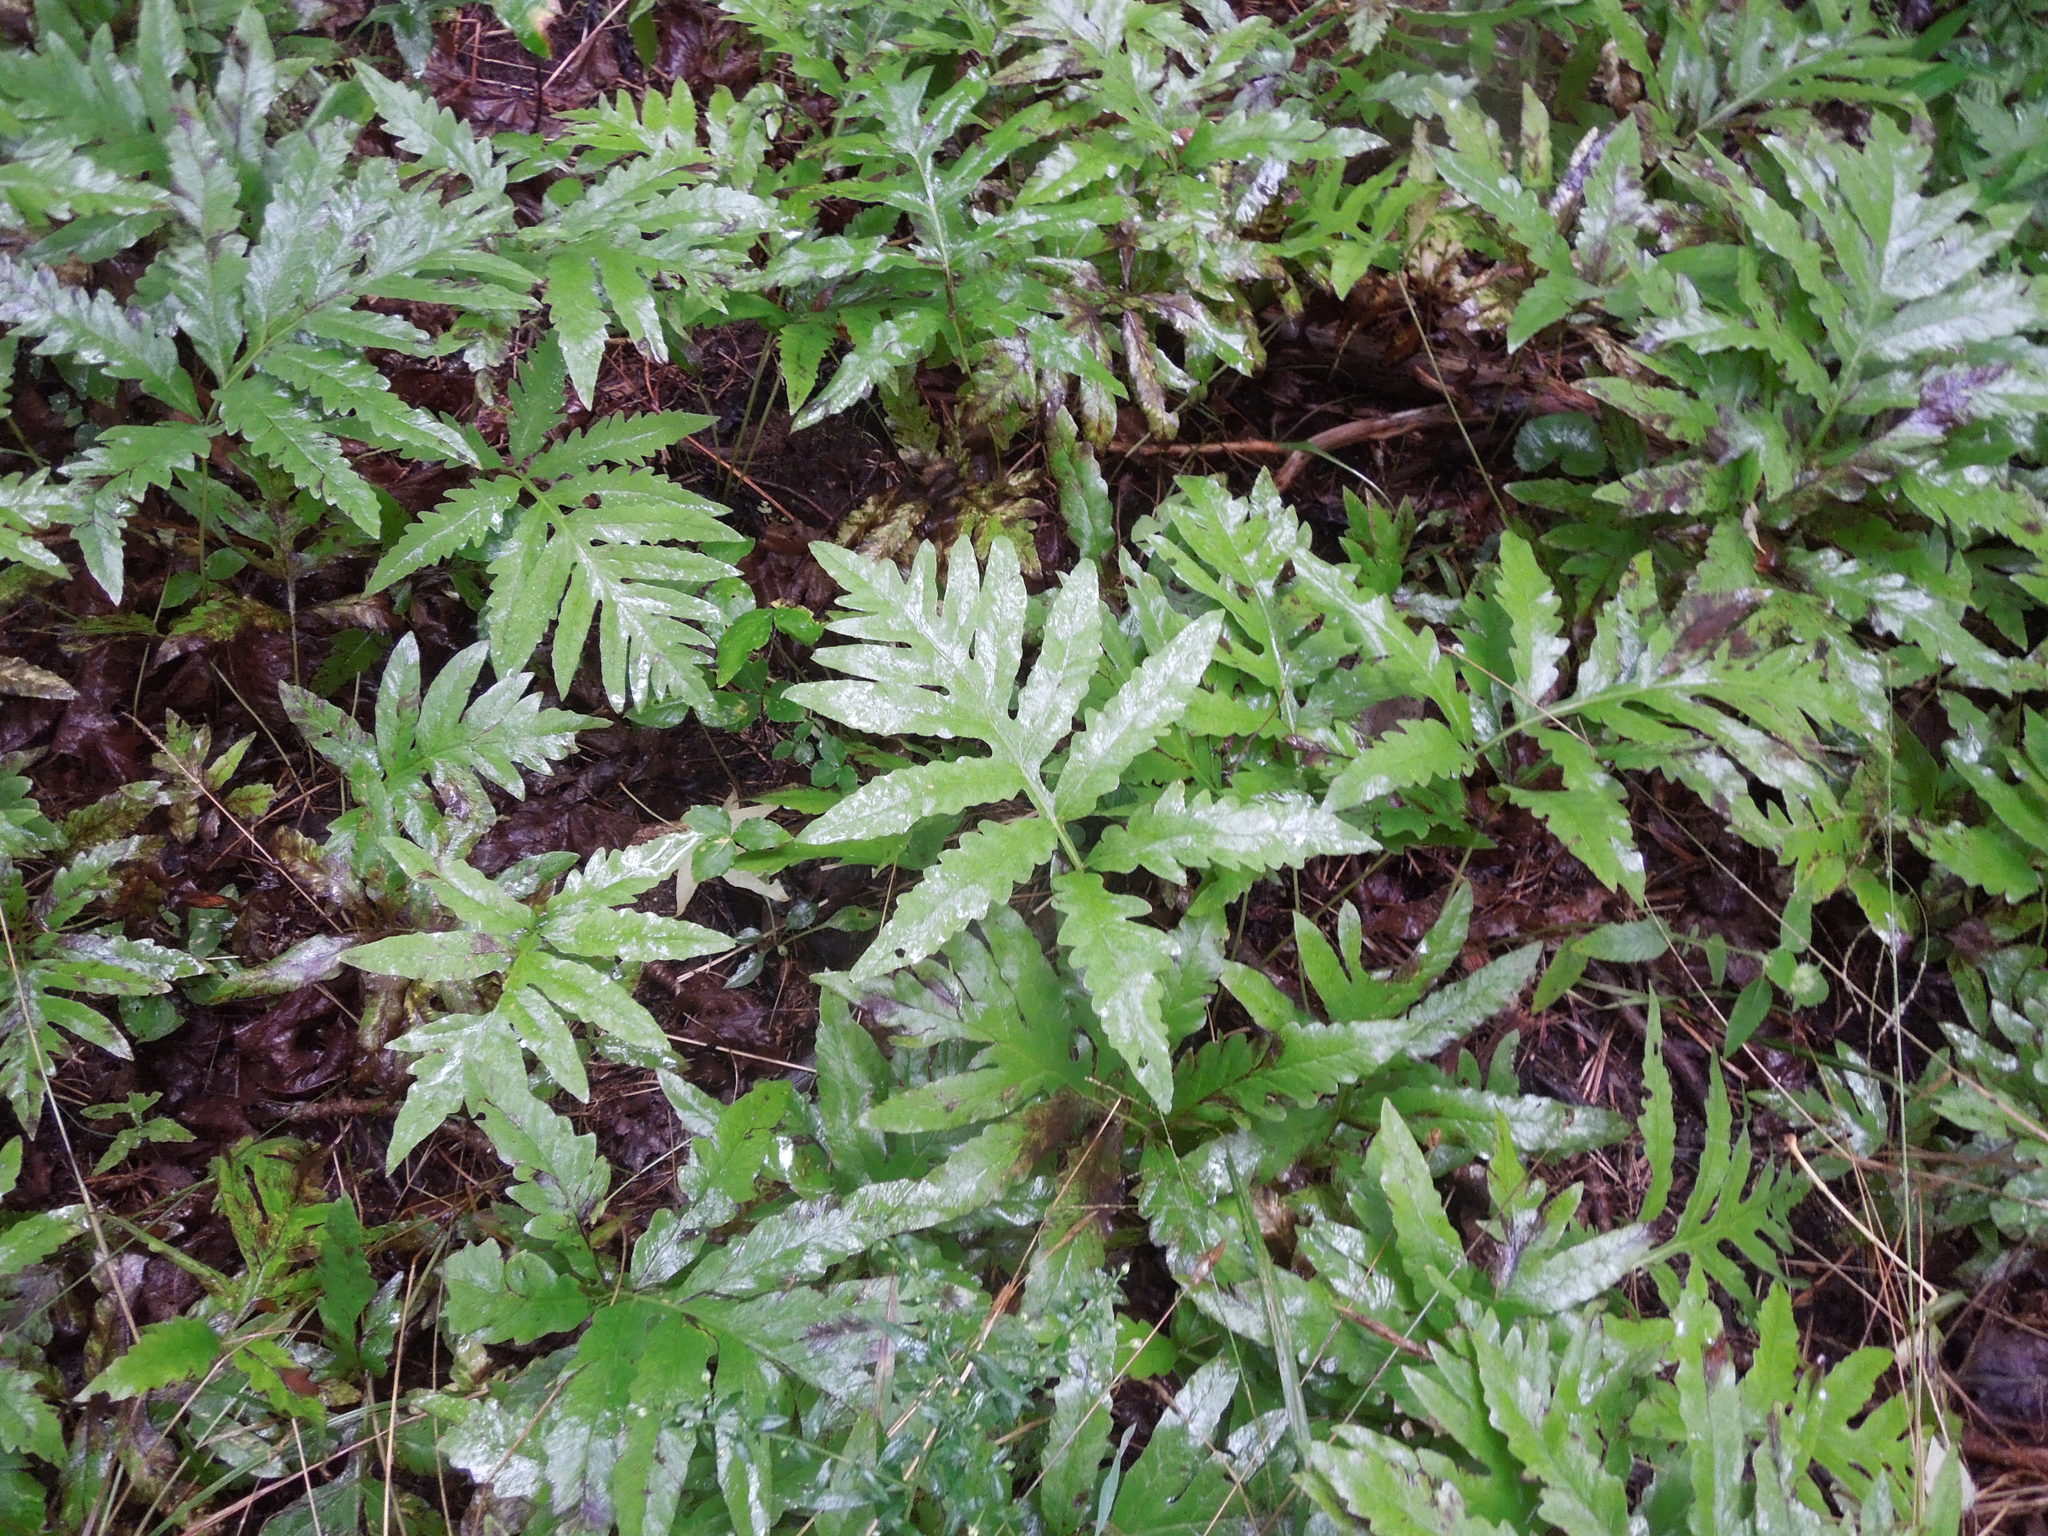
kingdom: Plantae
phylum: Tracheophyta
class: Polypodiopsida
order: Polypodiales
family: Onocleaceae
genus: Onoclea
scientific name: Onoclea sensibilis
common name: Sensitive fern
